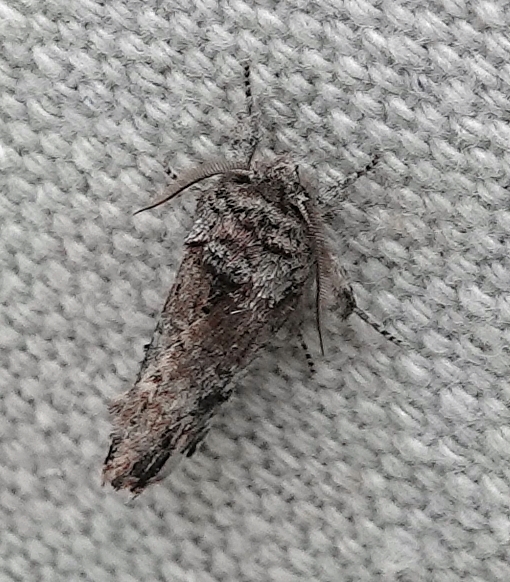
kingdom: Animalia
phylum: Arthropoda
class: Insecta
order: Lepidoptera
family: Notodontidae
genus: Schizura
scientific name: Schizura
